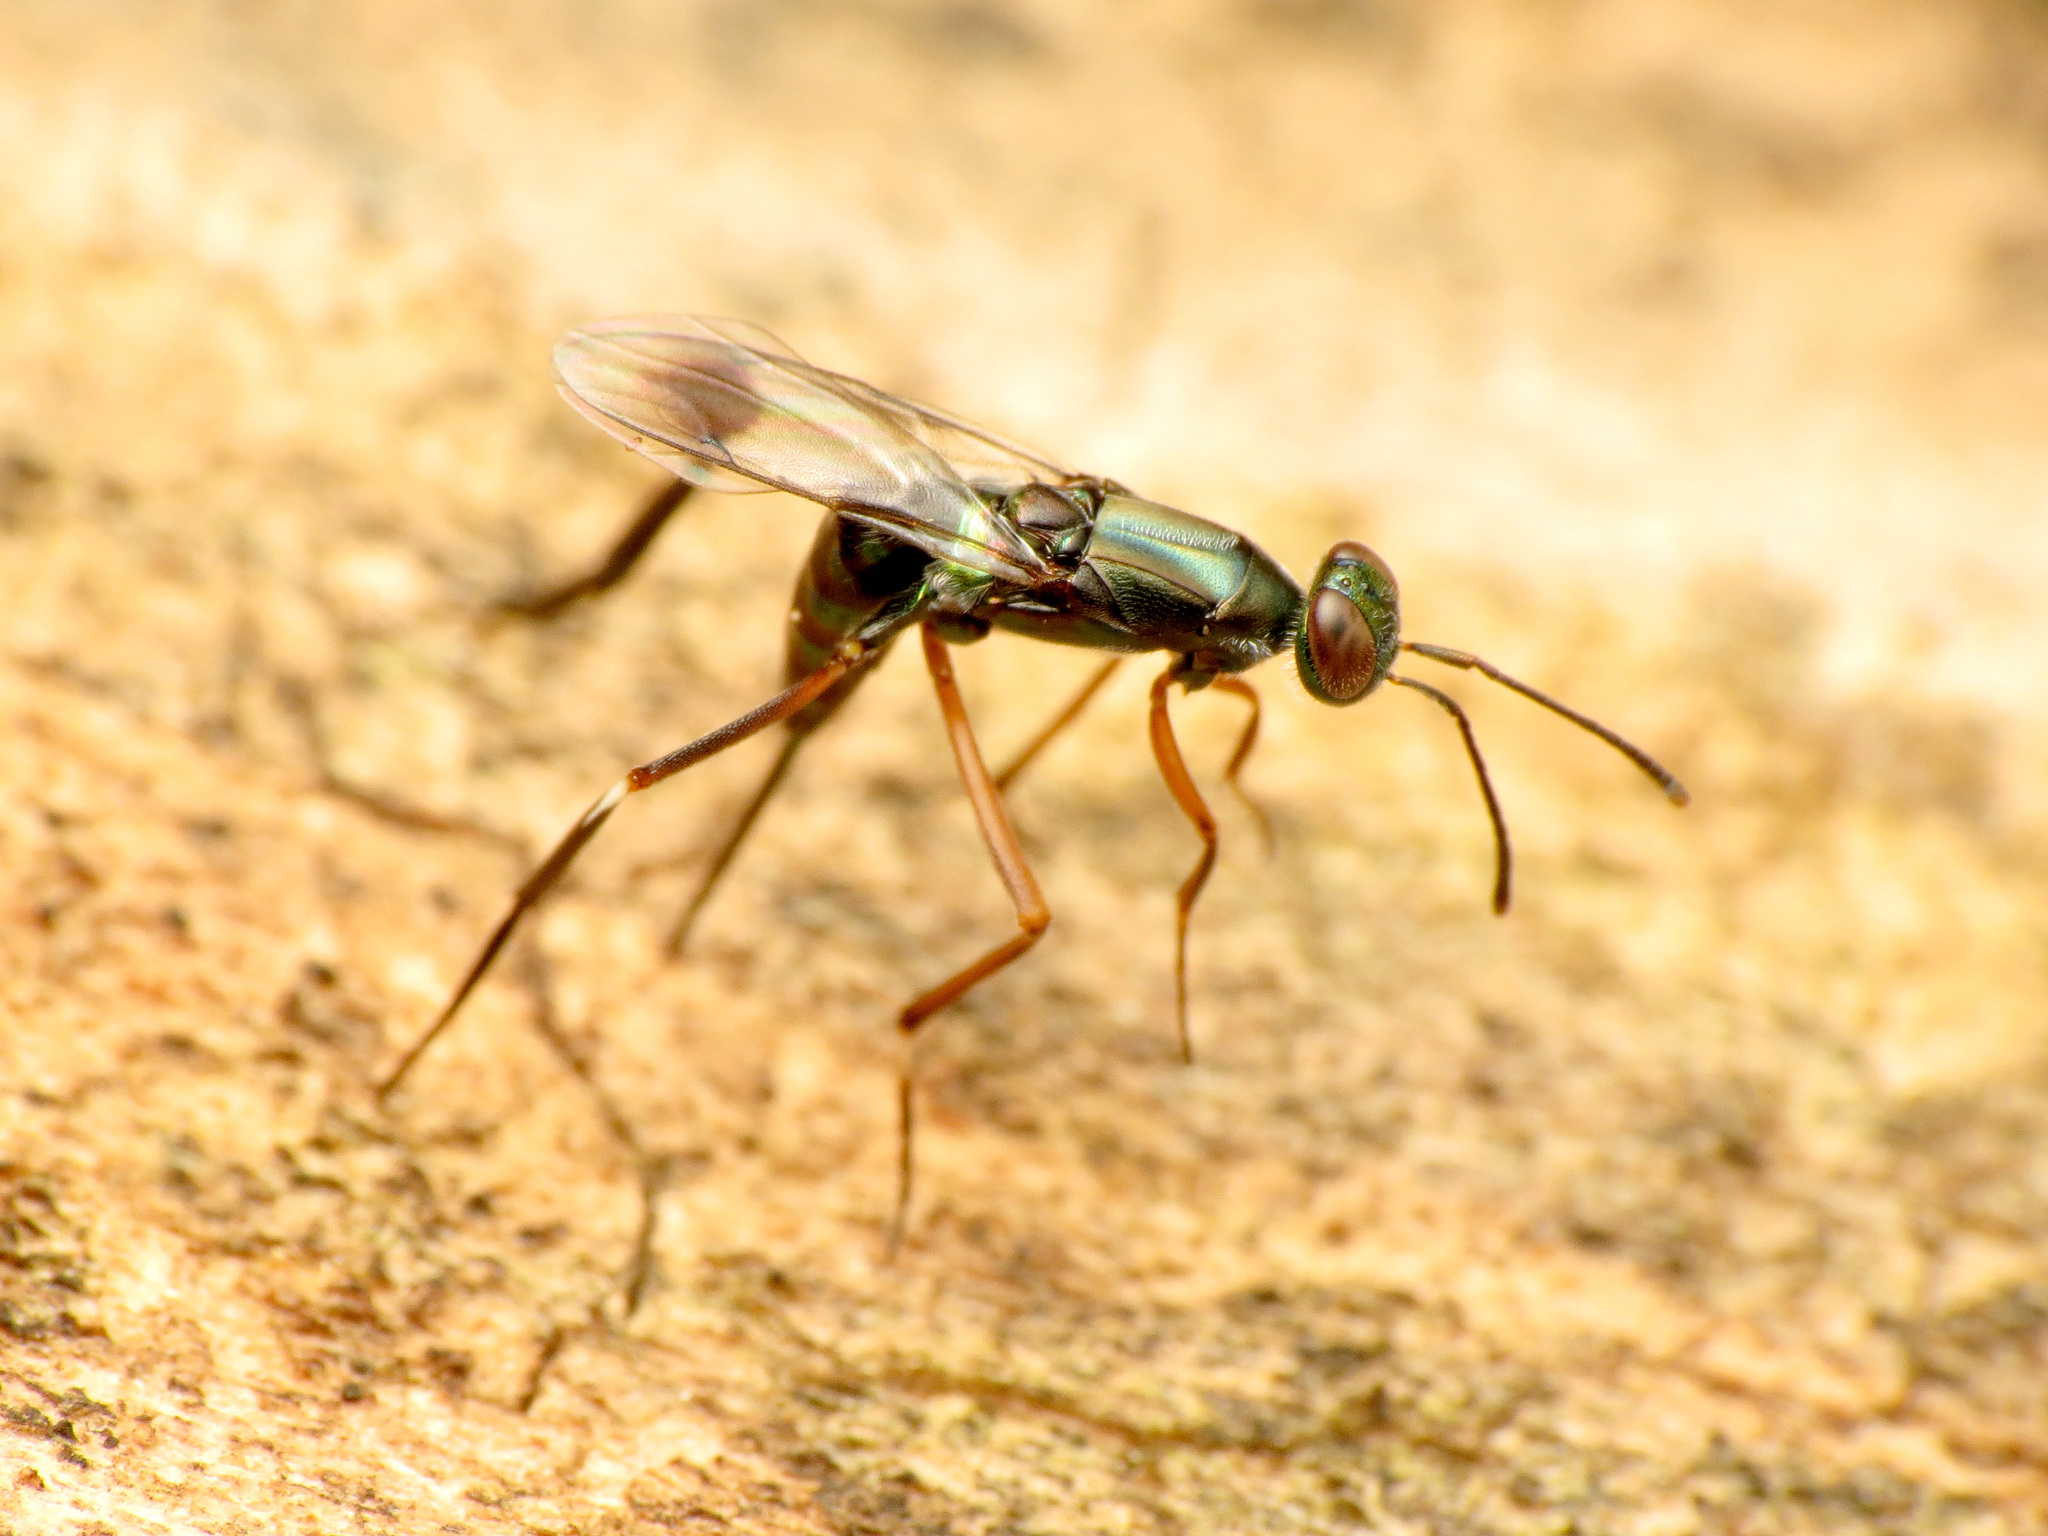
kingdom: Animalia
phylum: Arthropoda
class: Insecta
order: Hymenoptera
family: Eupelmidae
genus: Metapelma
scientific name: Metapelma spectabile
